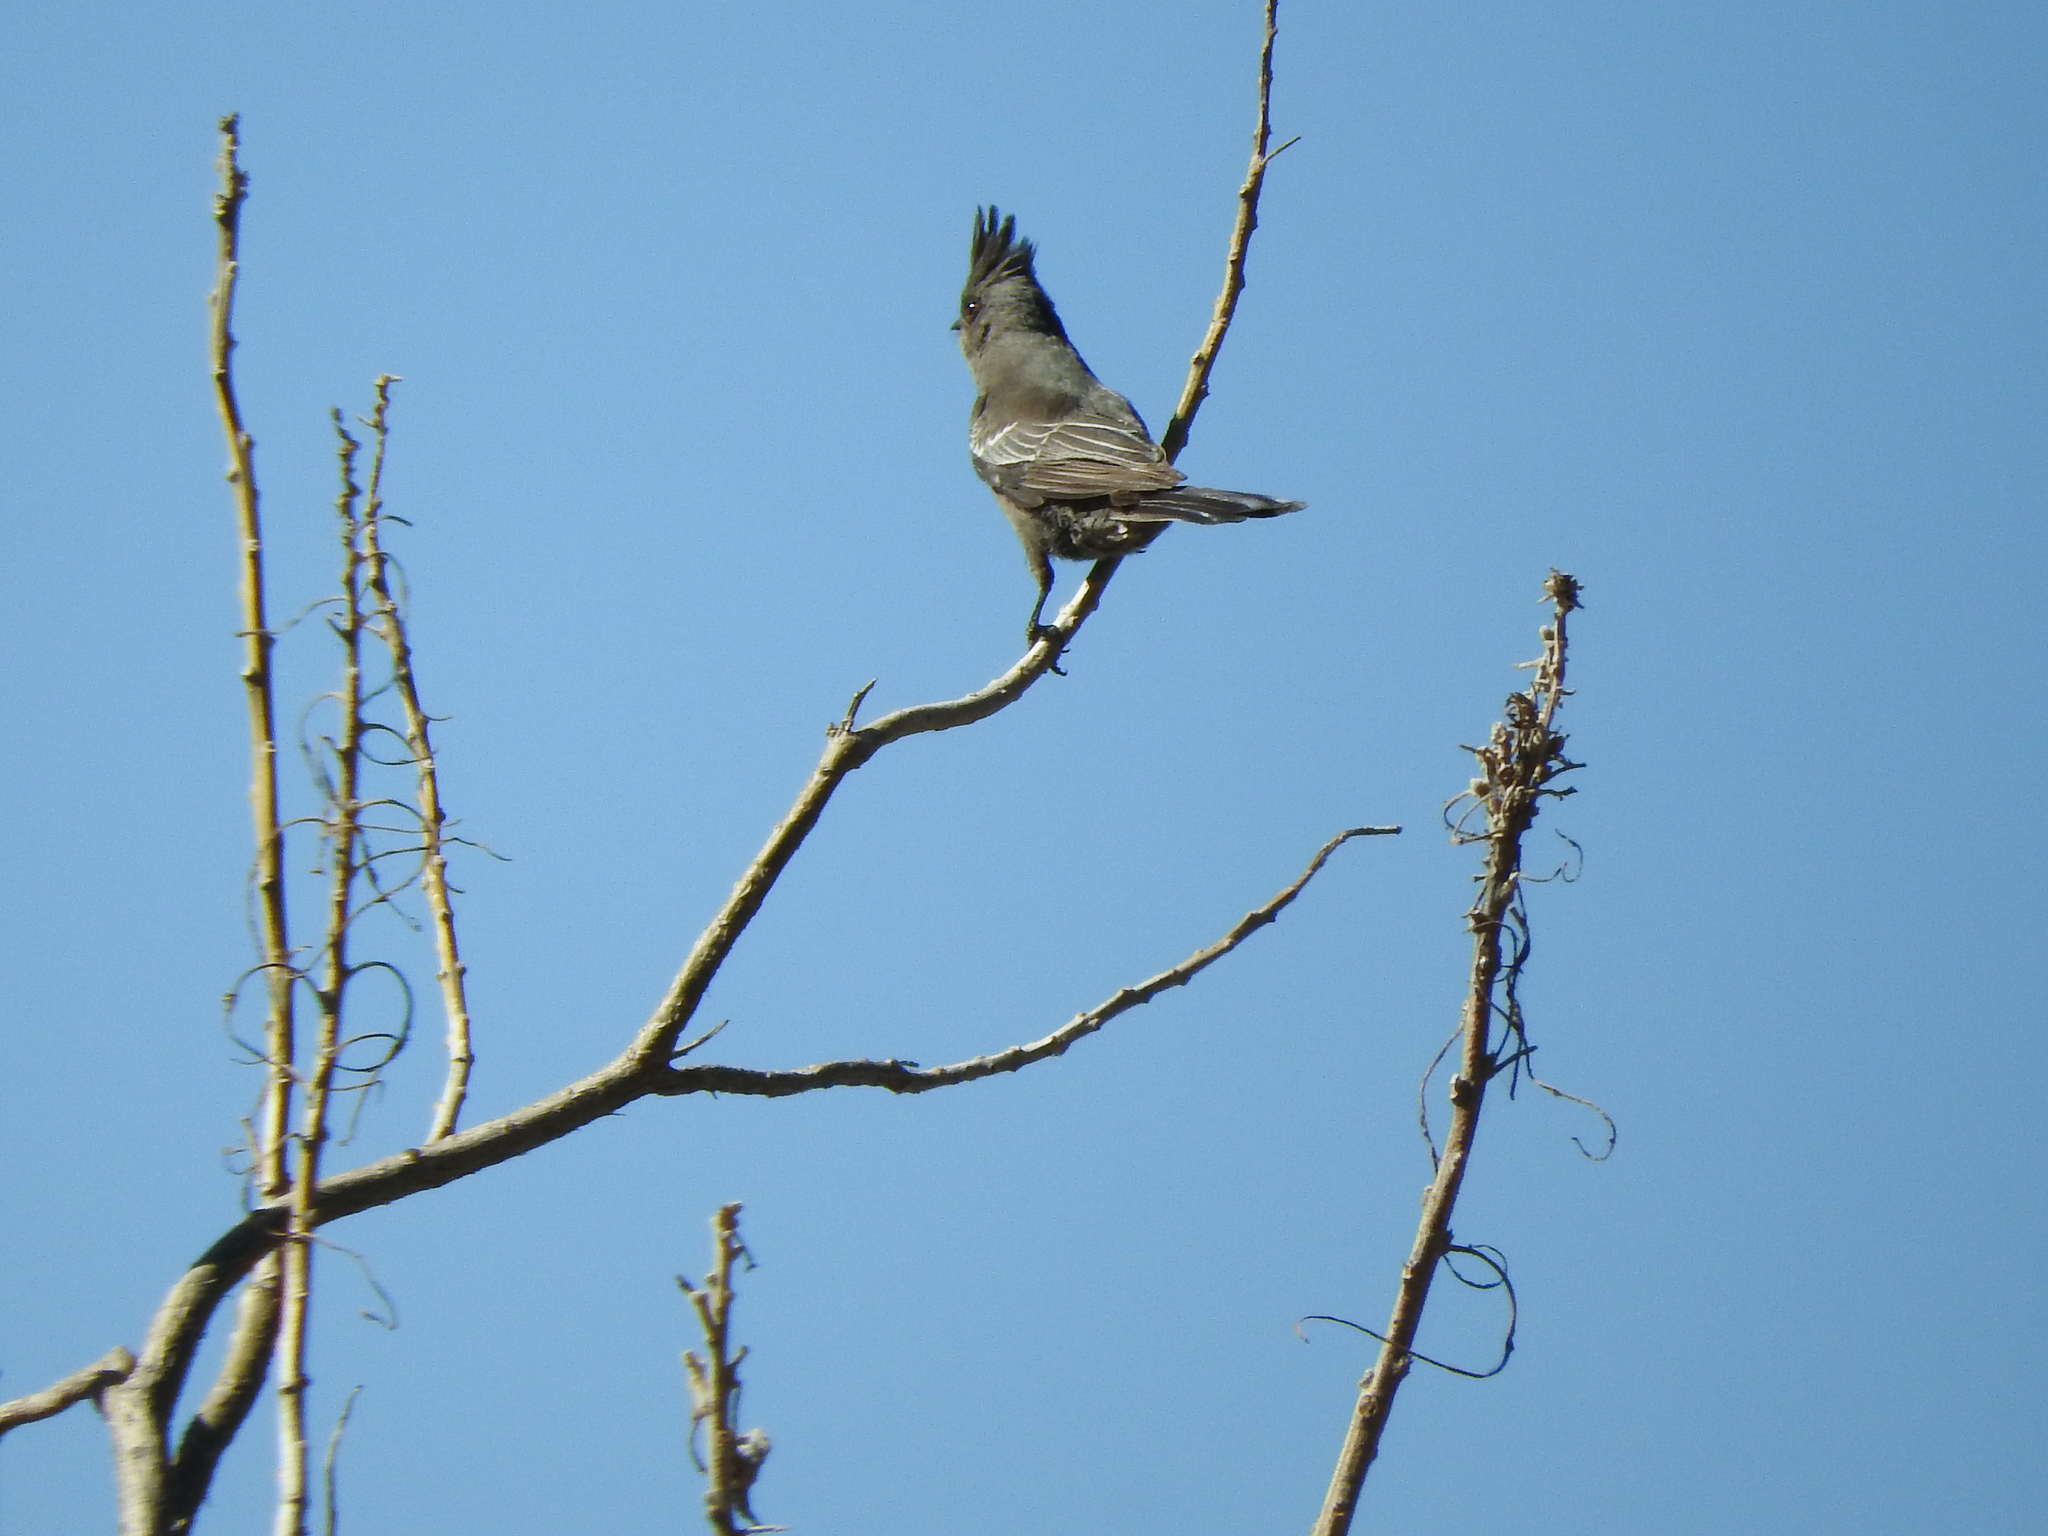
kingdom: Animalia
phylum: Chordata
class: Aves
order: Passeriformes
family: Ptilogonatidae
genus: Phainopepla
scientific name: Phainopepla nitens
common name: Phainopepla
